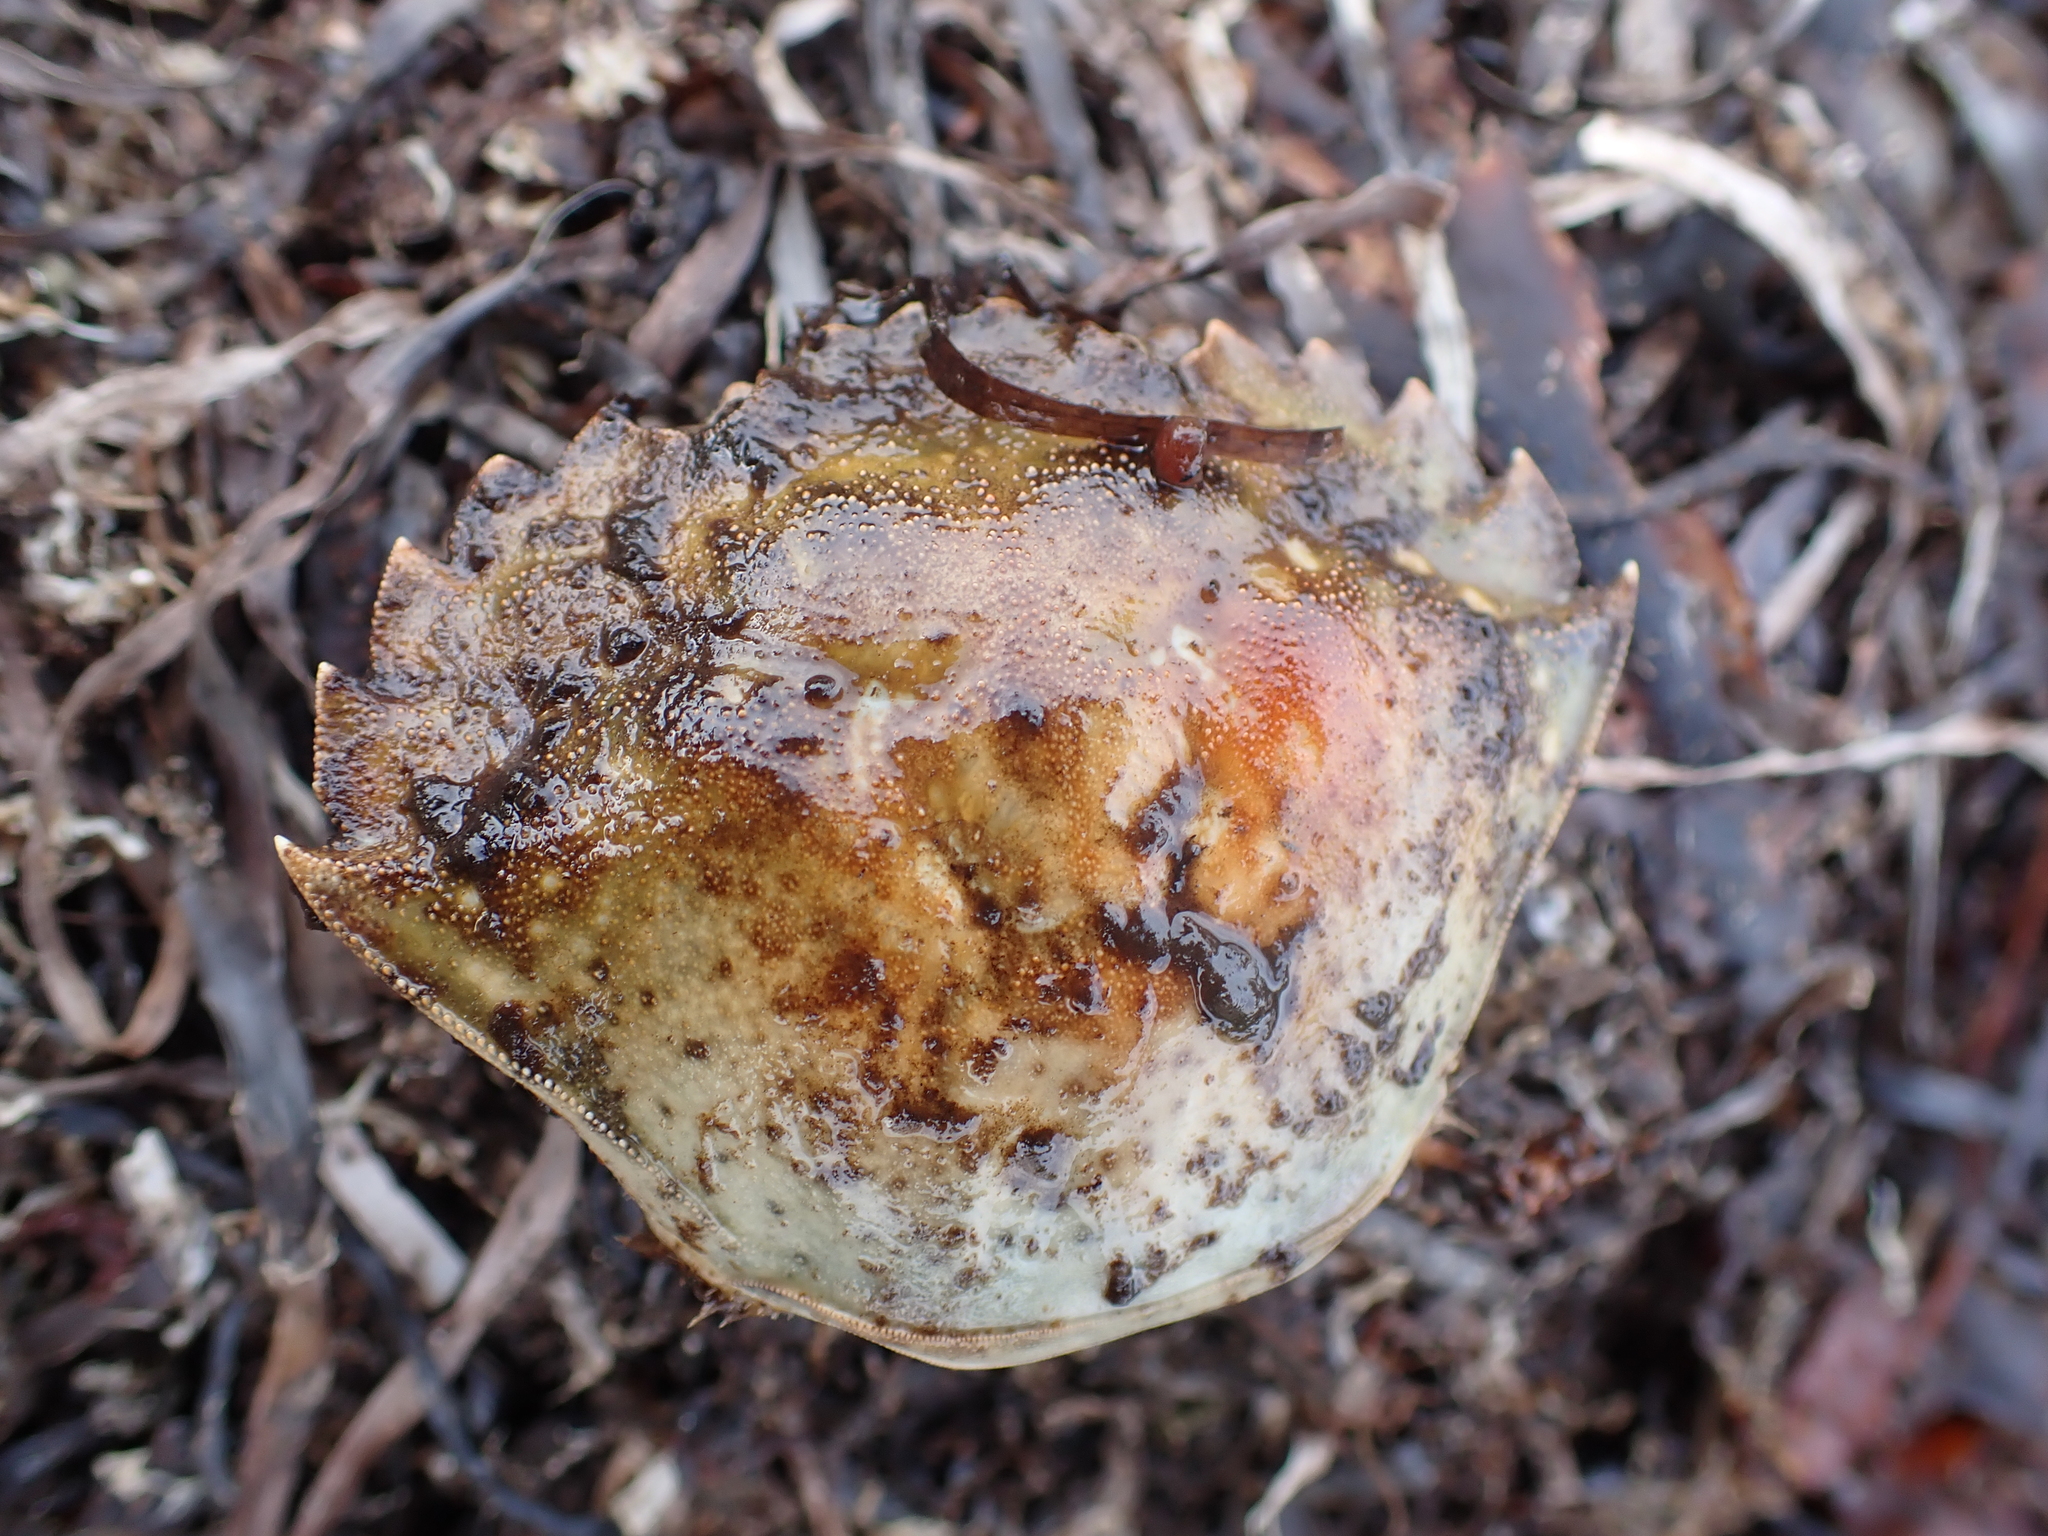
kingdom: Animalia
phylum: Arthropoda
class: Malacostraca
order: Decapoda
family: Carcinidae
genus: Carcinus
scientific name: Carcinus maenas
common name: European green crab
